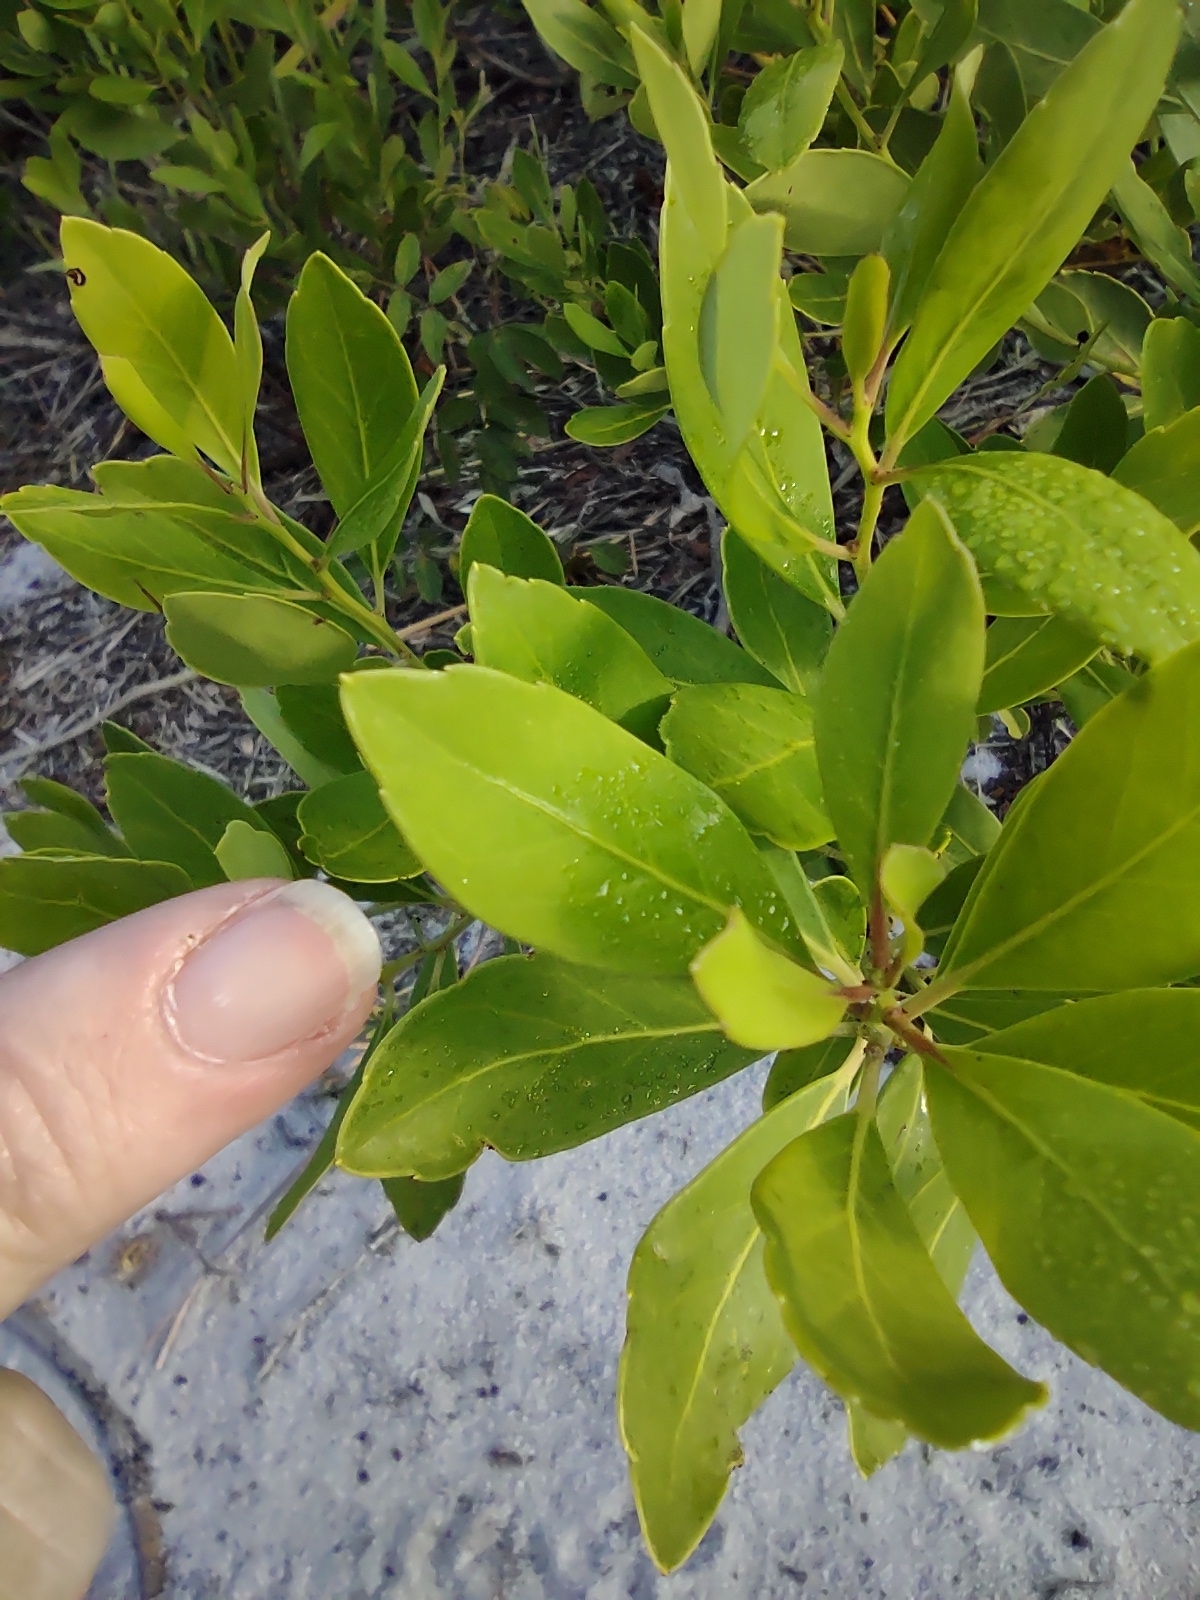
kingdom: Plantae
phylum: Tracheophyta
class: Magnoliopsida
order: Aquifoliales
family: Aquifoliaceae
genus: Ilex
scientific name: Ilex glabra
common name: Bitter gallberry
